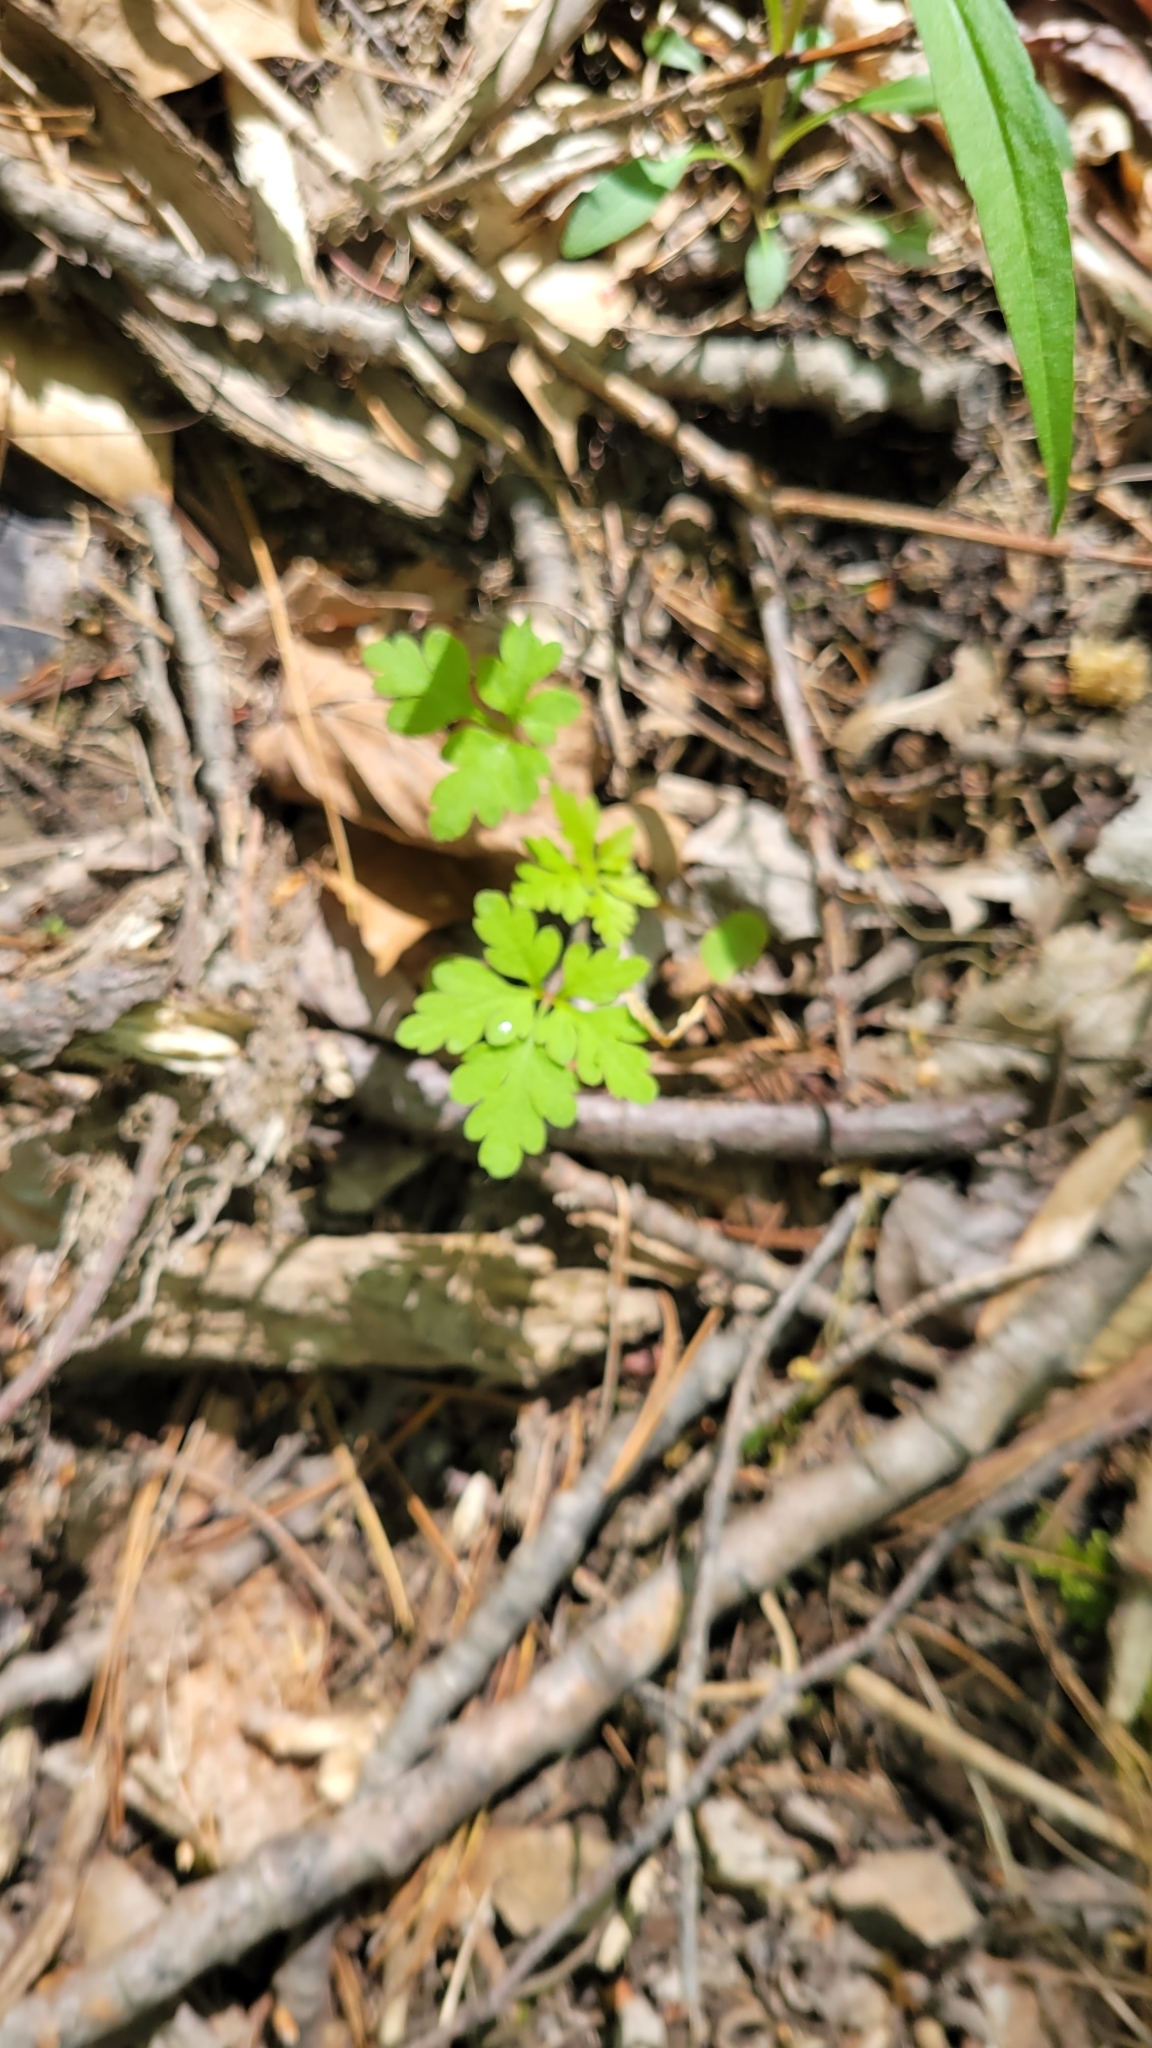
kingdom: Plantae
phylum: Tracheophyta
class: Polypodiopsida
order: Polypodiales
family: Onocleaceae
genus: Onoclea
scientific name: Onoclea sensibilis
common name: Sensitive fern
